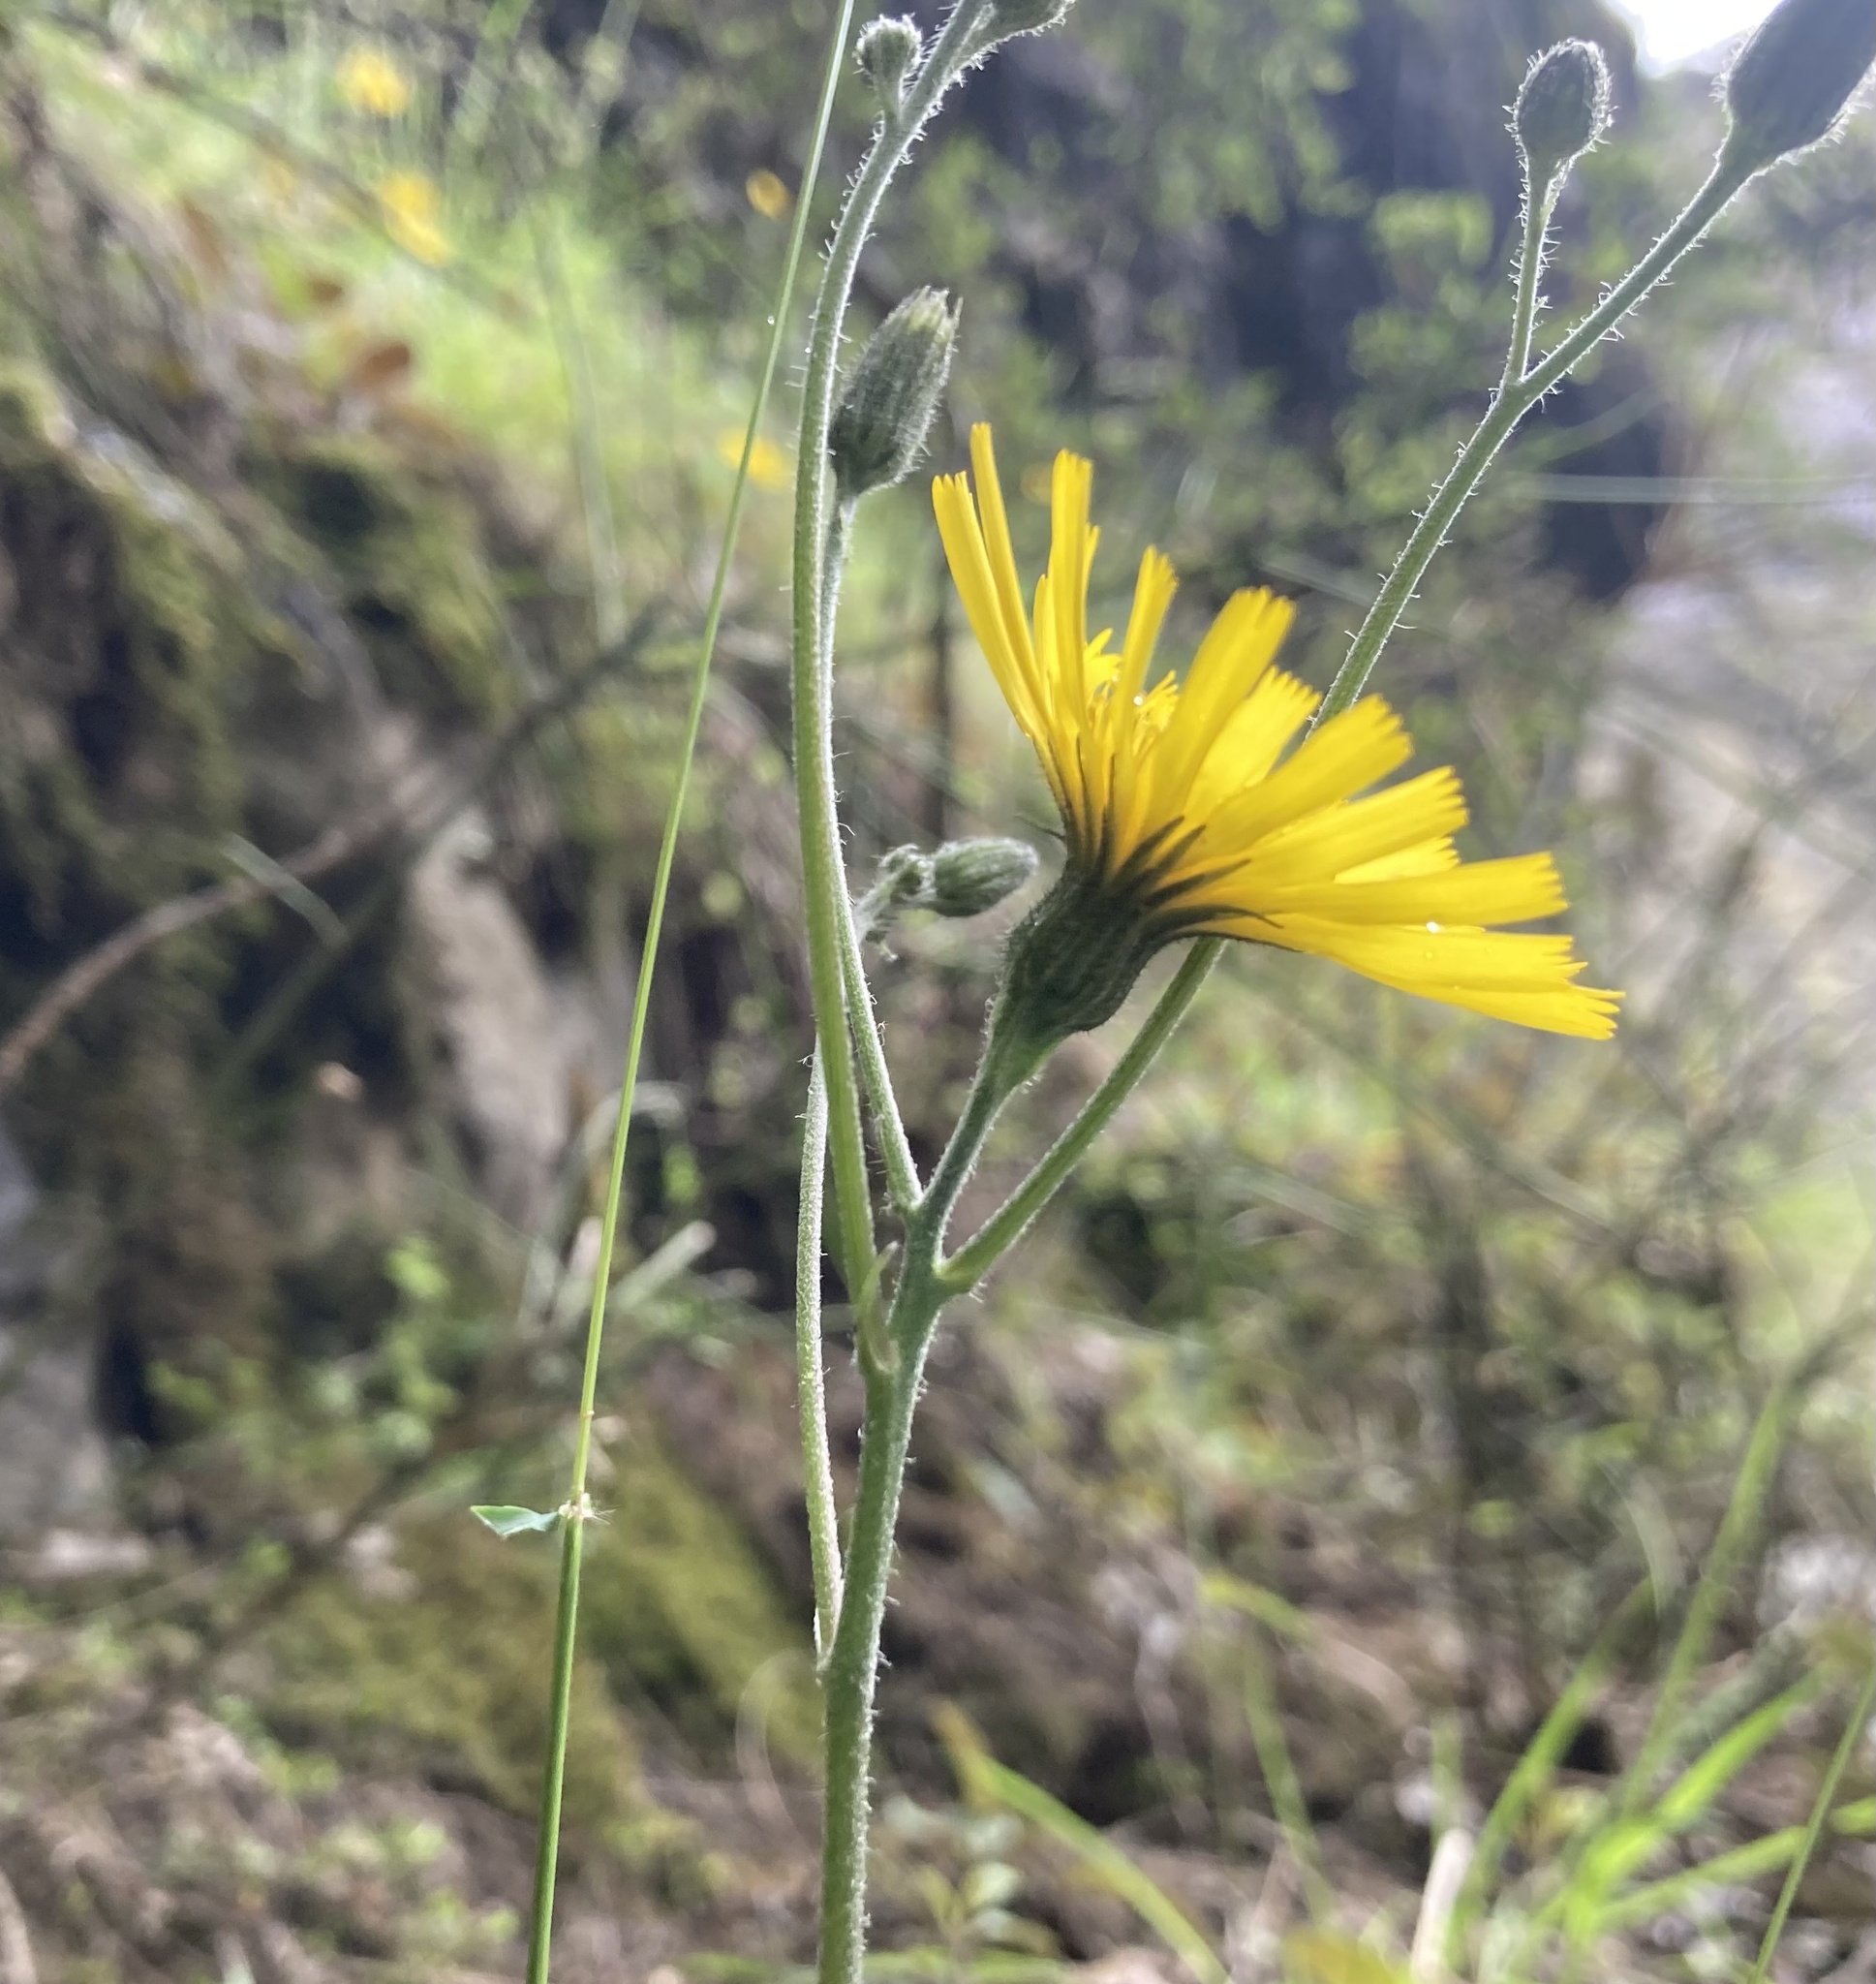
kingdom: Plantae
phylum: Tracheophyta
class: Magnoliopsida
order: Asterales
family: Asteraceae
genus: Hieracium
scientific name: Hieracium lepidulum
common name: Irregular-toothed hawkweed
